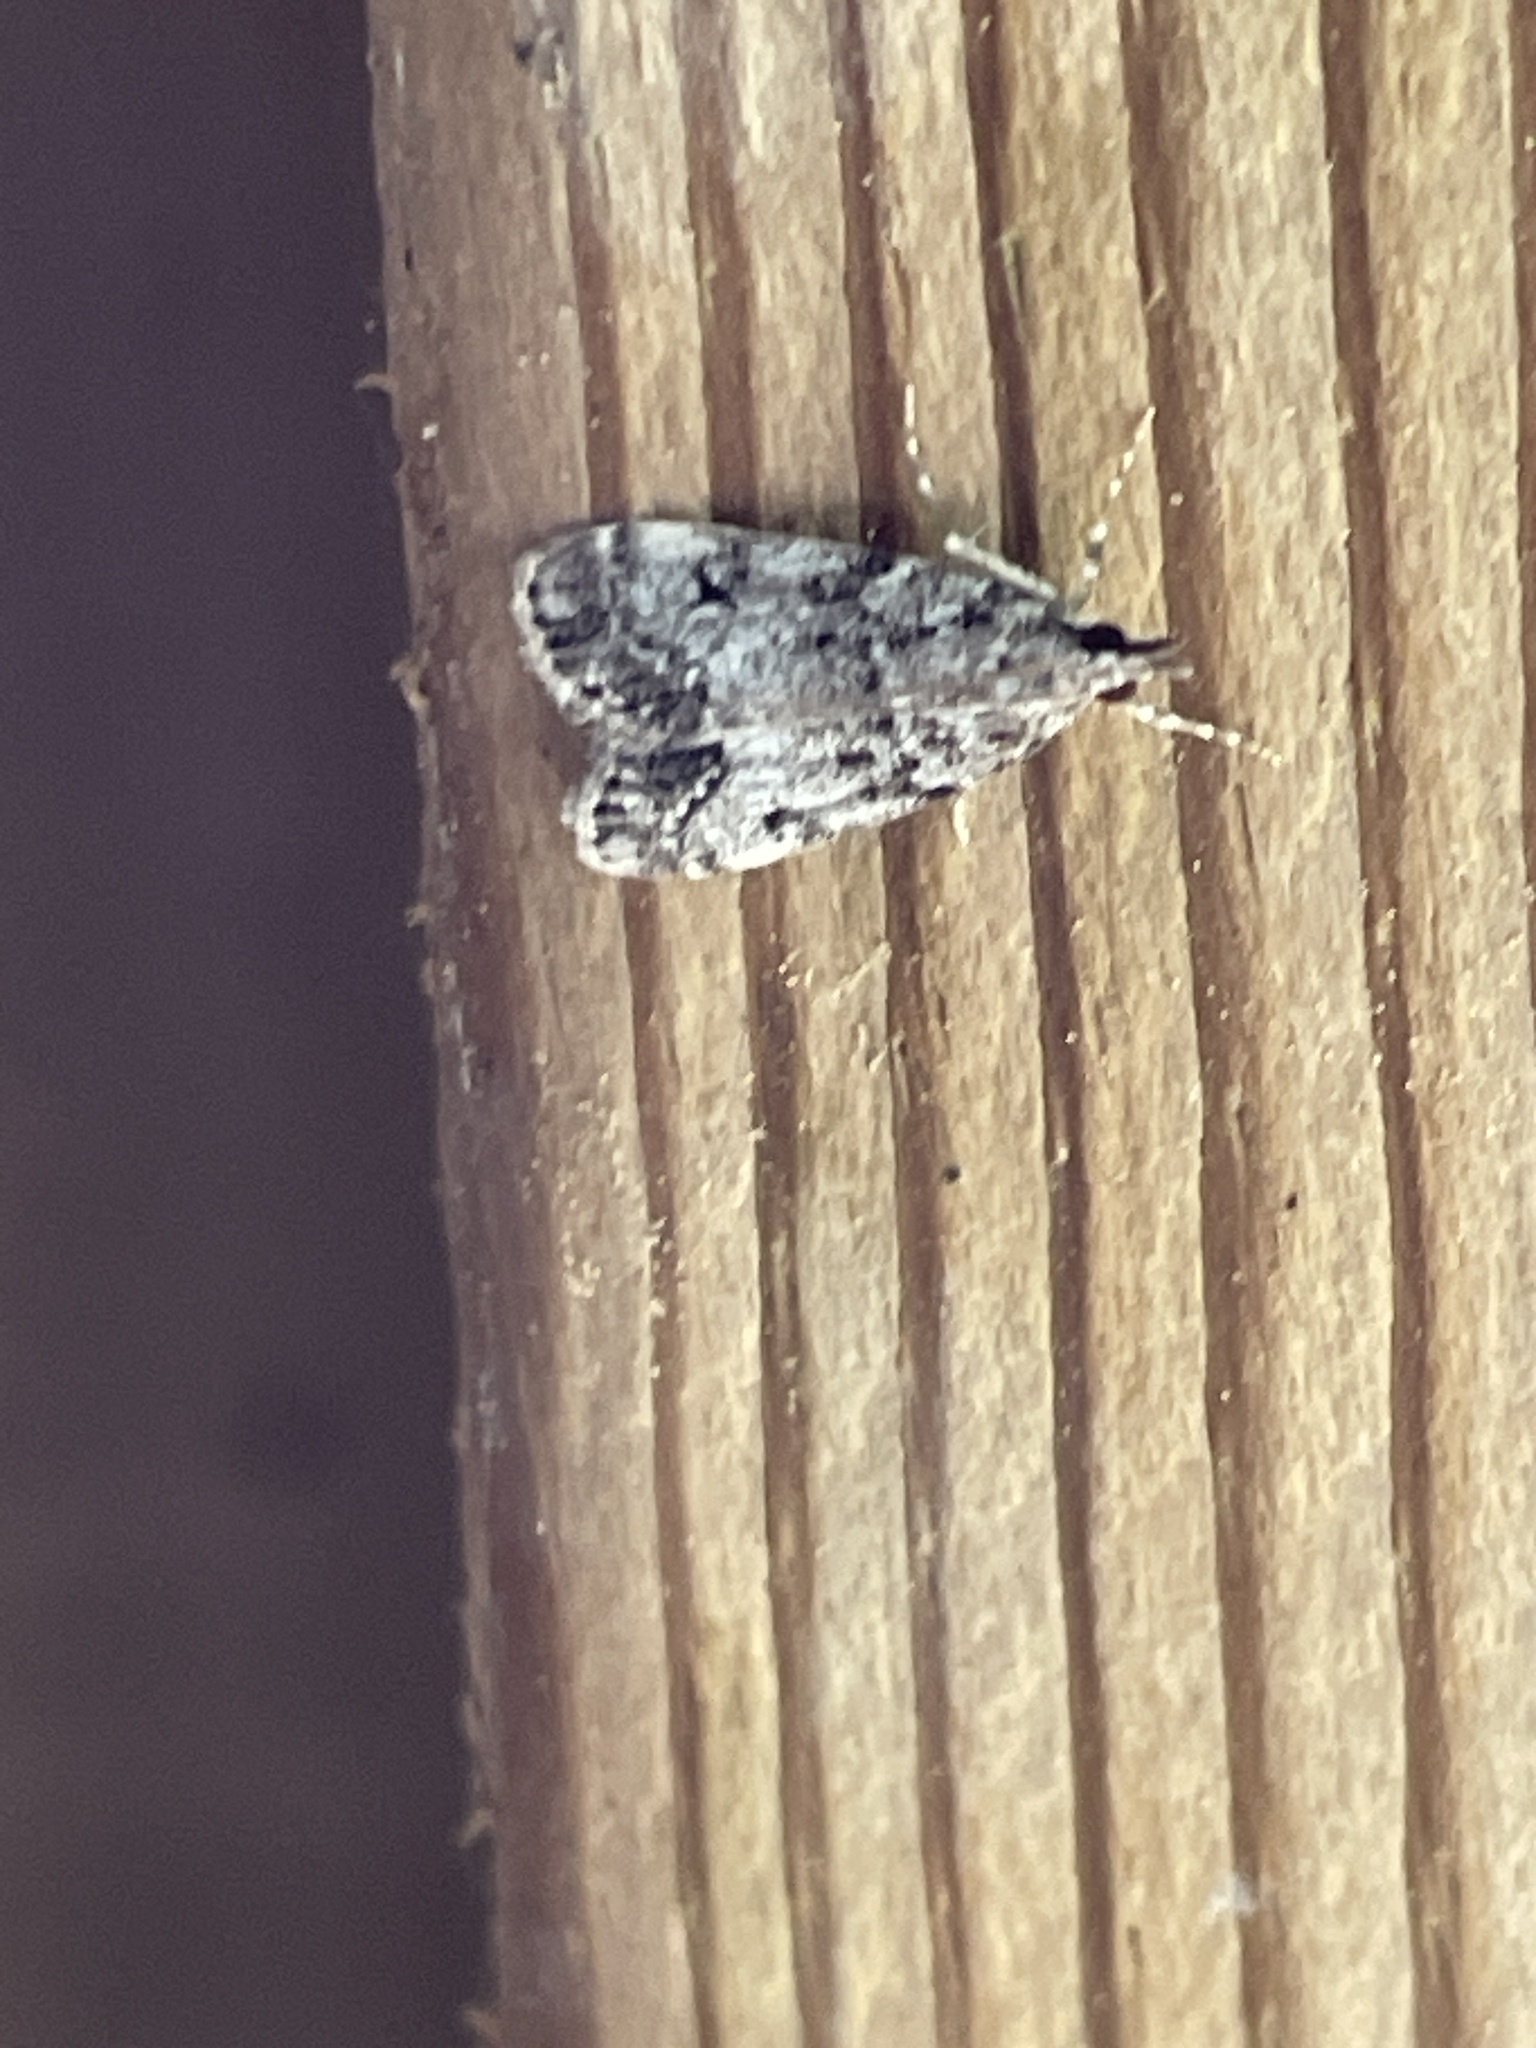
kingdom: Animalia
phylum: Arthropoda
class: Insecta
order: Lepidoptera
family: Crambidae
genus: Eudonia
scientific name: Eudonia lacustrata
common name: Little grey
